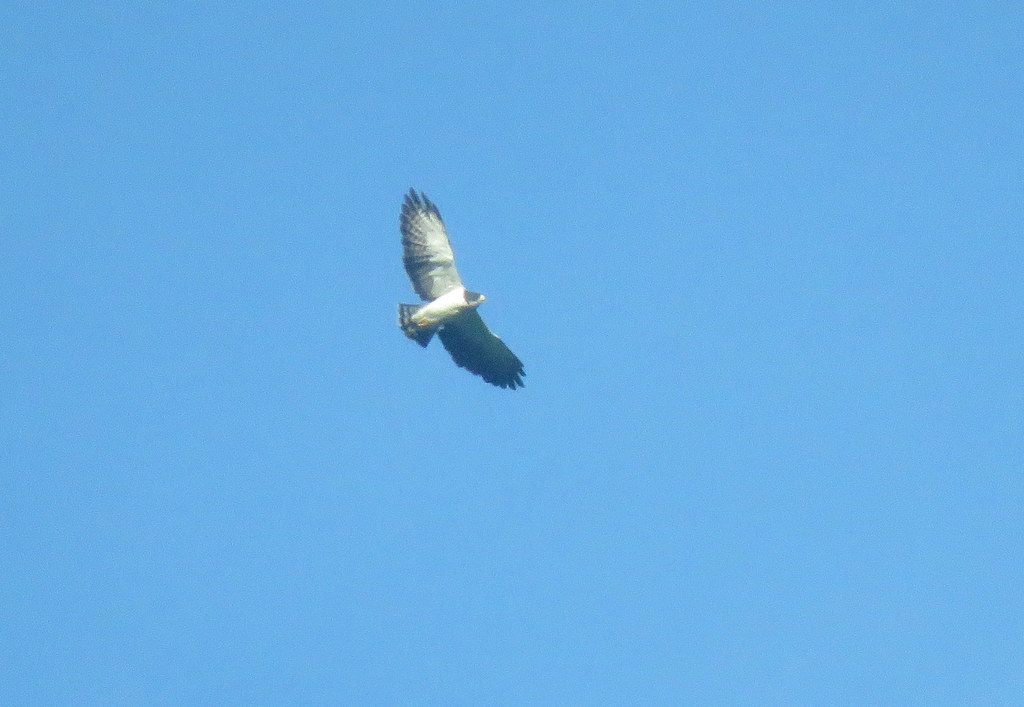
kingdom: Animalia
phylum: Chordata
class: Aves
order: Accipitriformes
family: Accipitridae
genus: Buteo
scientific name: Buteo brachyurus
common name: Short-tailed hawk
